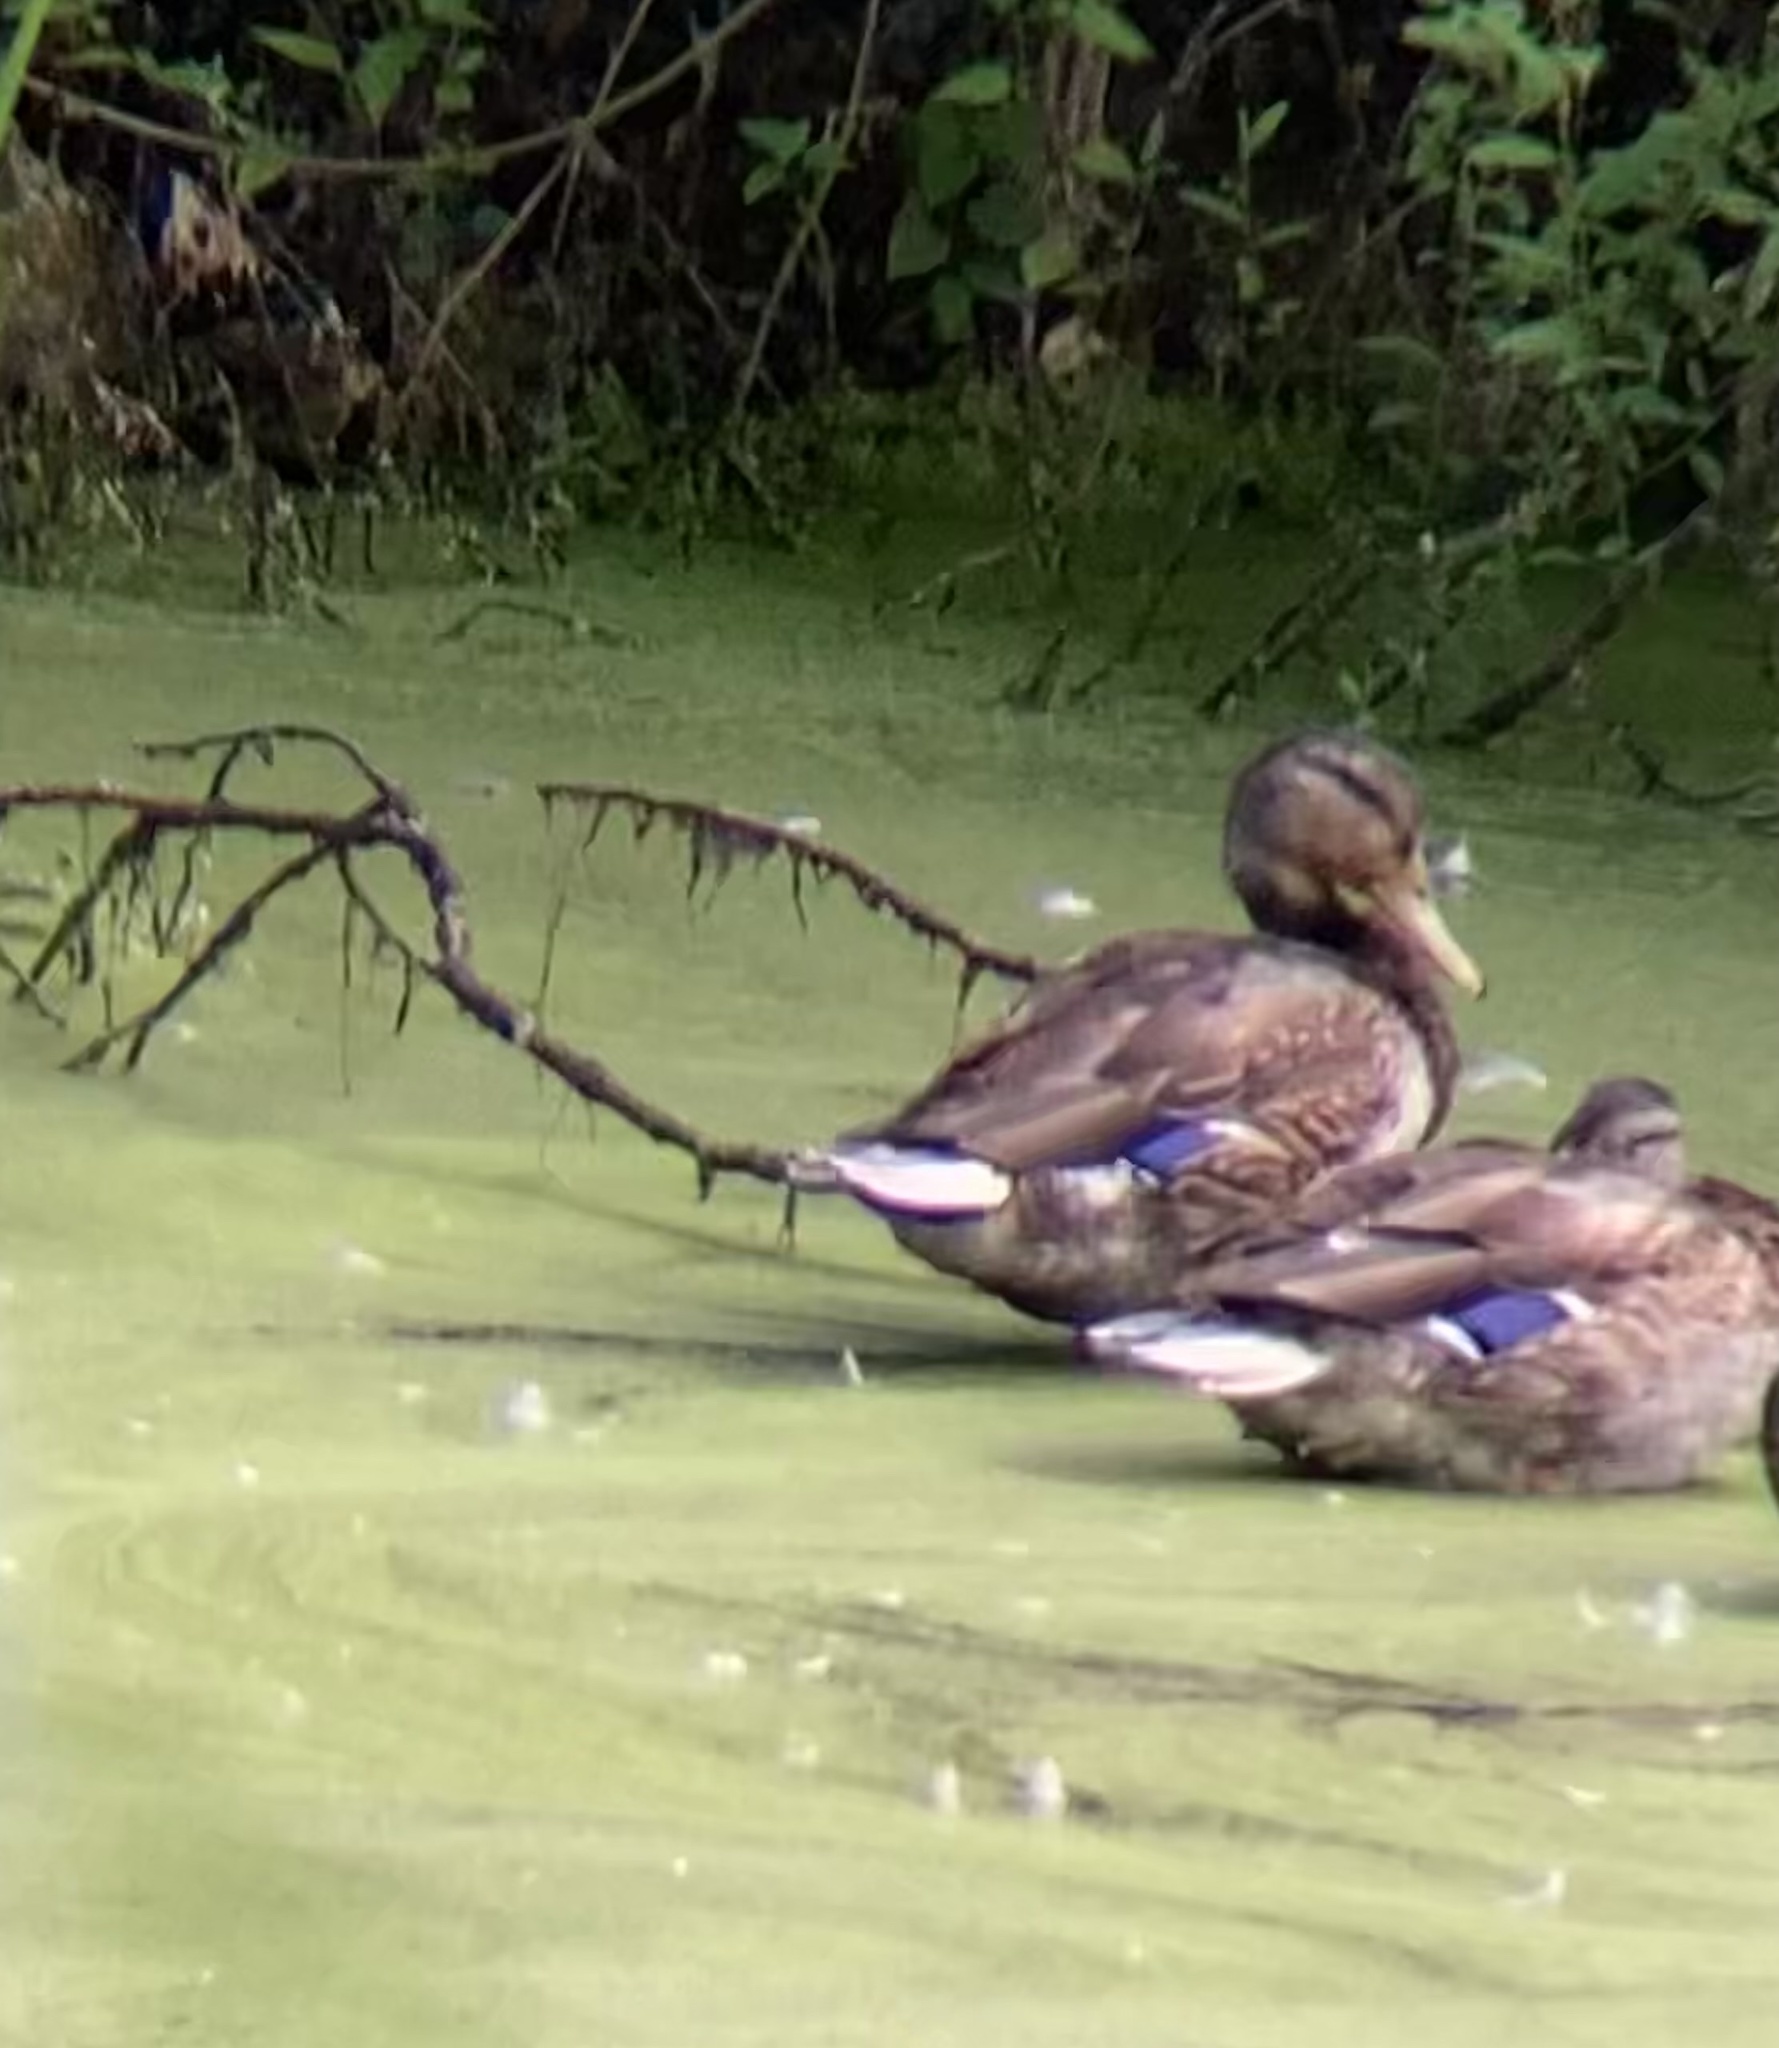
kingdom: Animalia
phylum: Chordata
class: Aves
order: Anseriformes
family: Anatidae
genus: Anas
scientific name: Anas platyrhynchos
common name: Mallard
